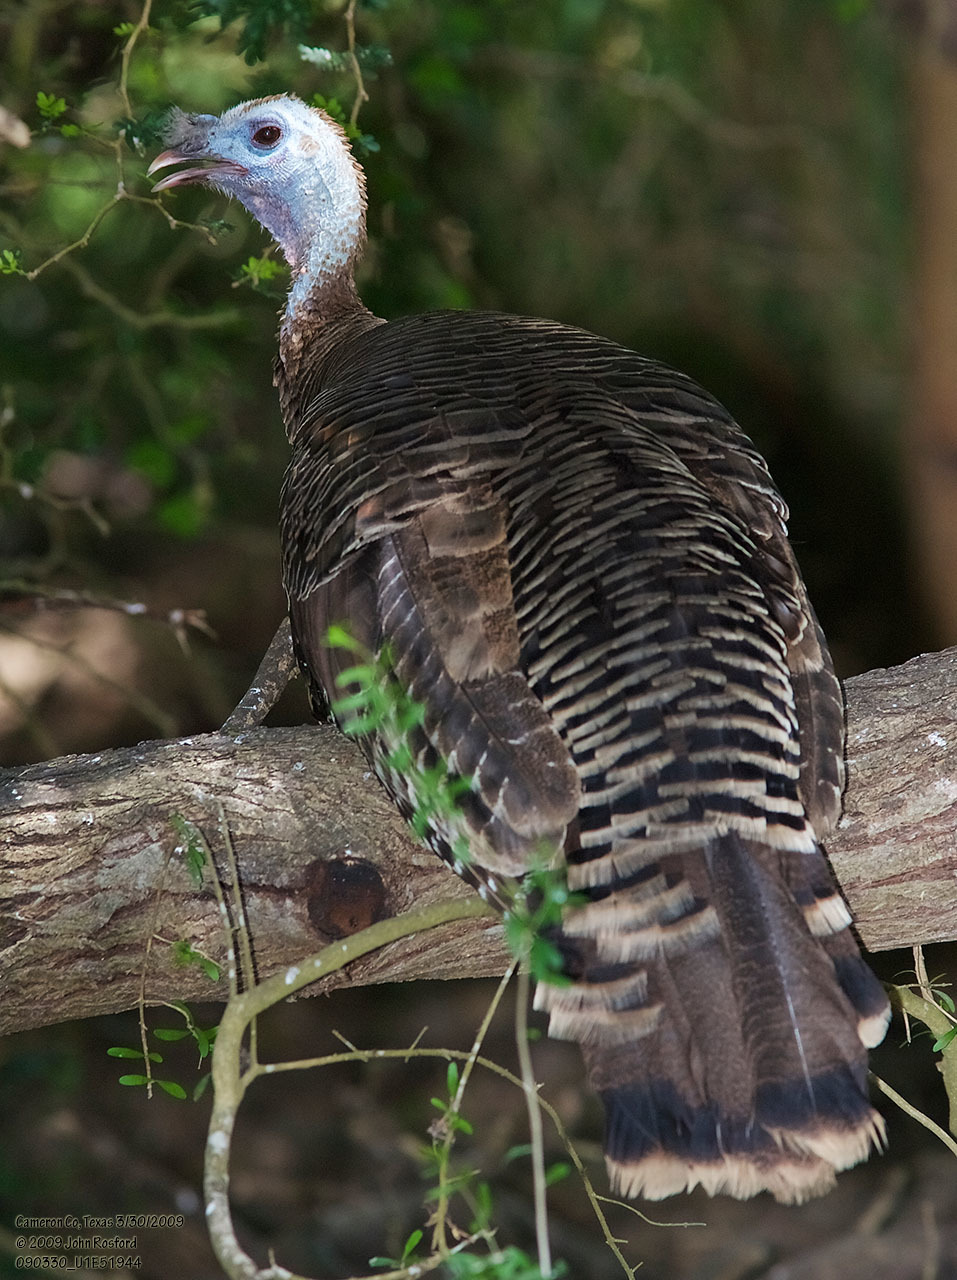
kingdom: Animalia
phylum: Chordata
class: Aves
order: Galliformes
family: Phasianidae
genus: Meleagris
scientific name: Meleagris gallopavo
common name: Wild turkey
